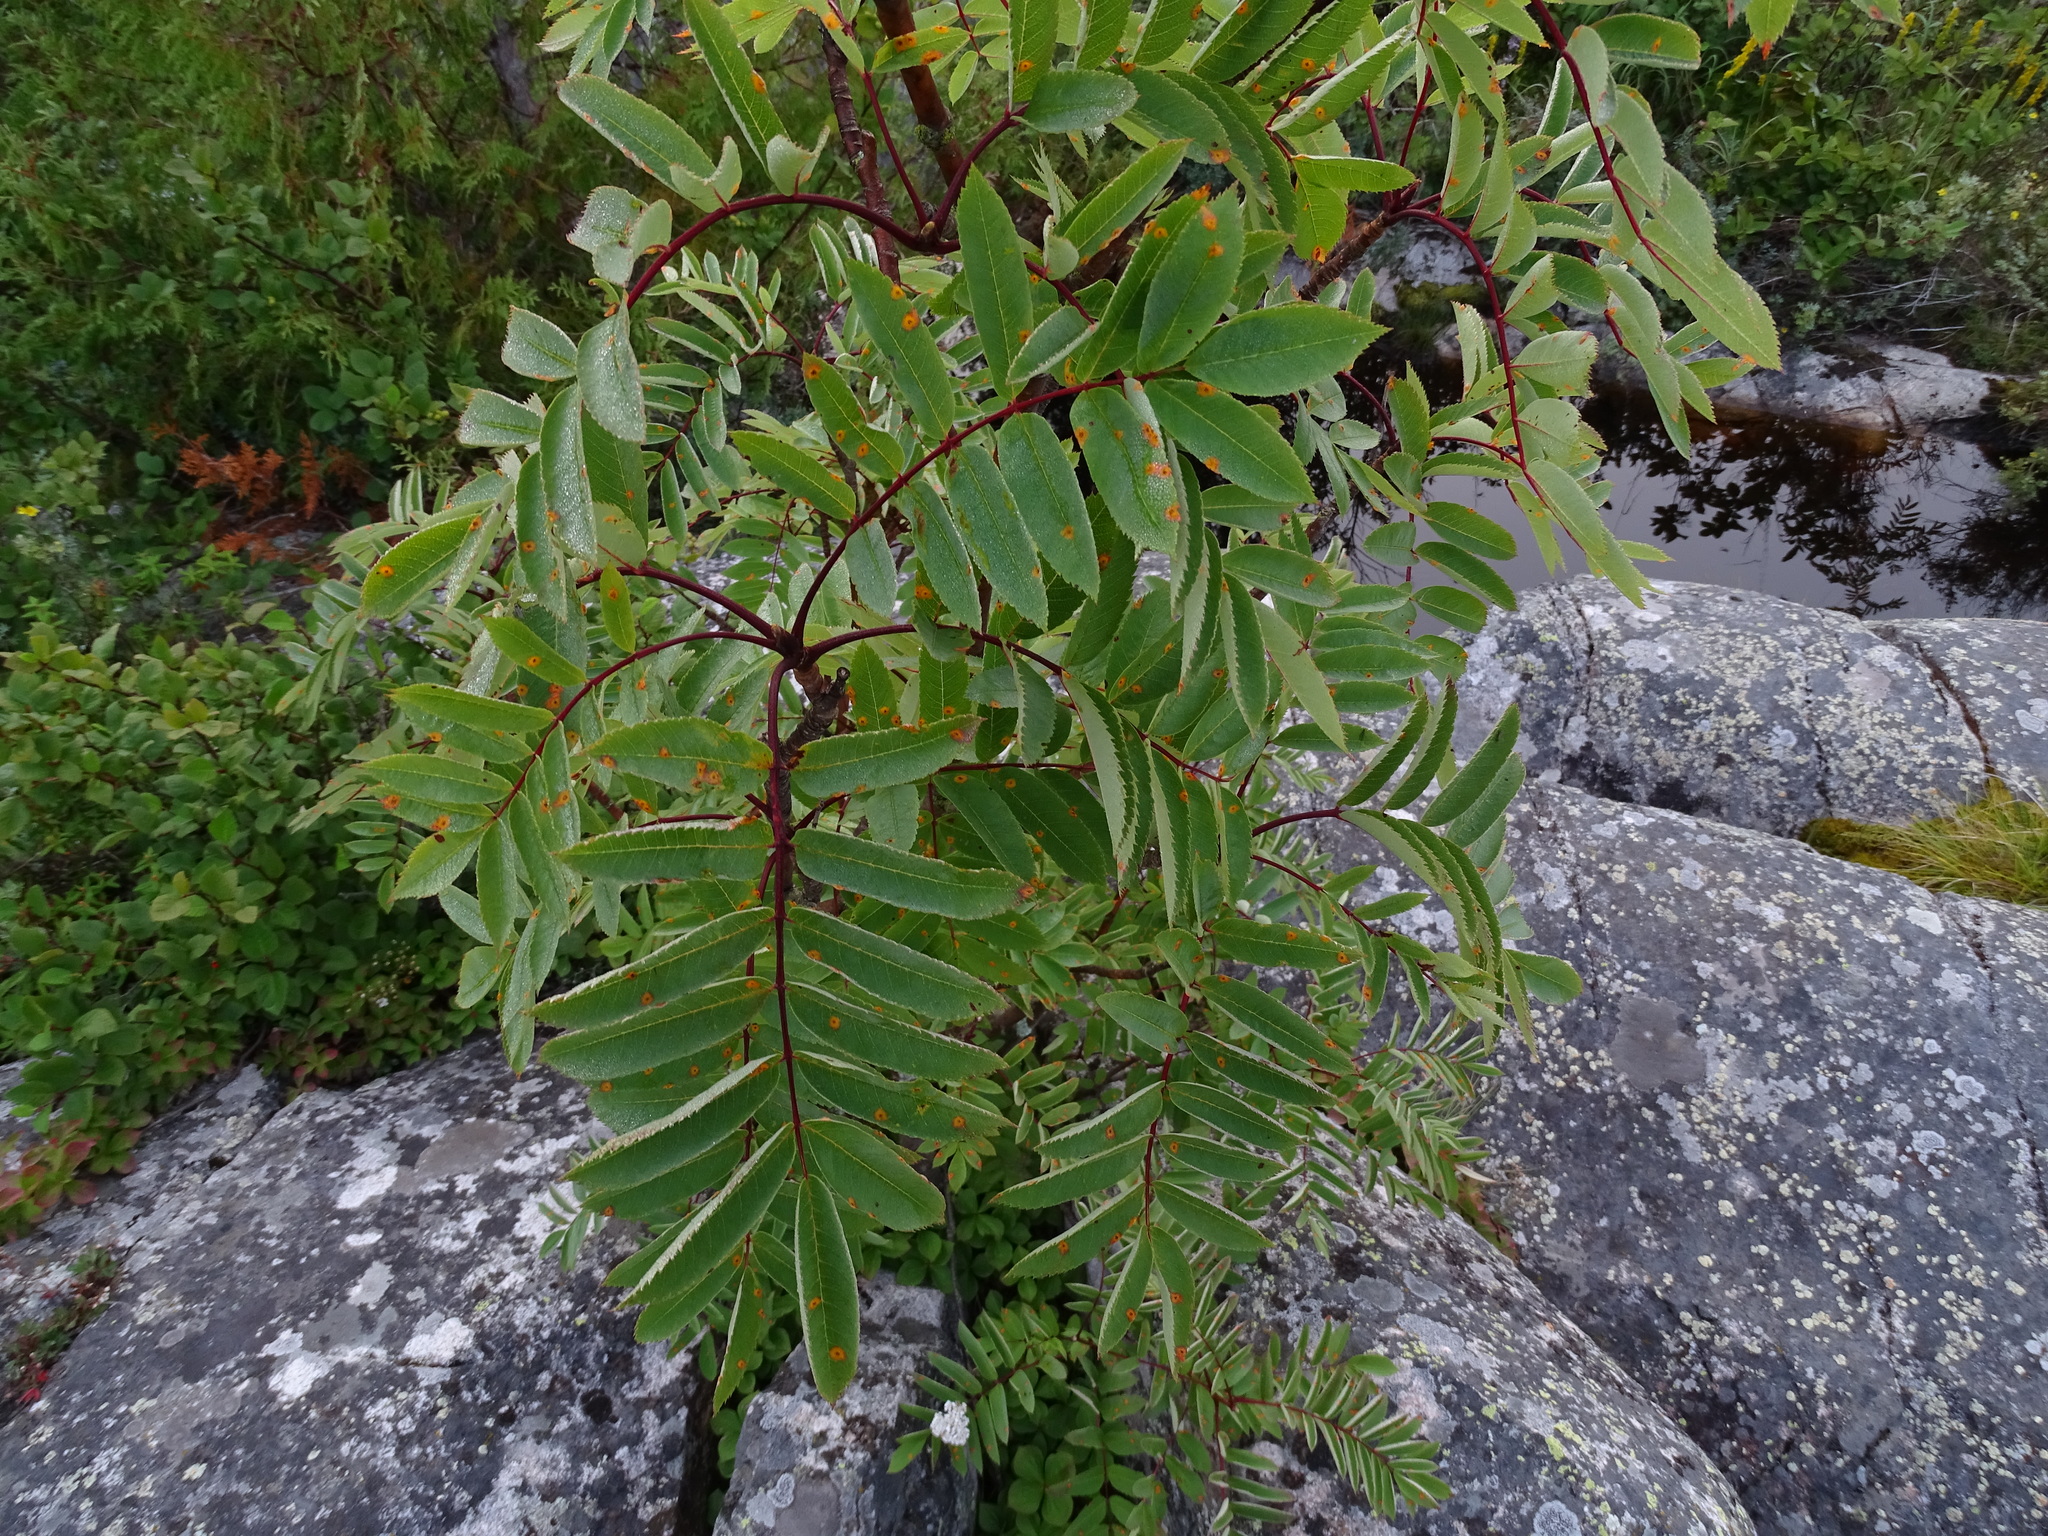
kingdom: Plantae
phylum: Tracheophyta
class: Magnoliopsida
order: Rosales
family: Rosaceae
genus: Sorbus
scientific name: Sorbus decora
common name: Northern mountain-ash
